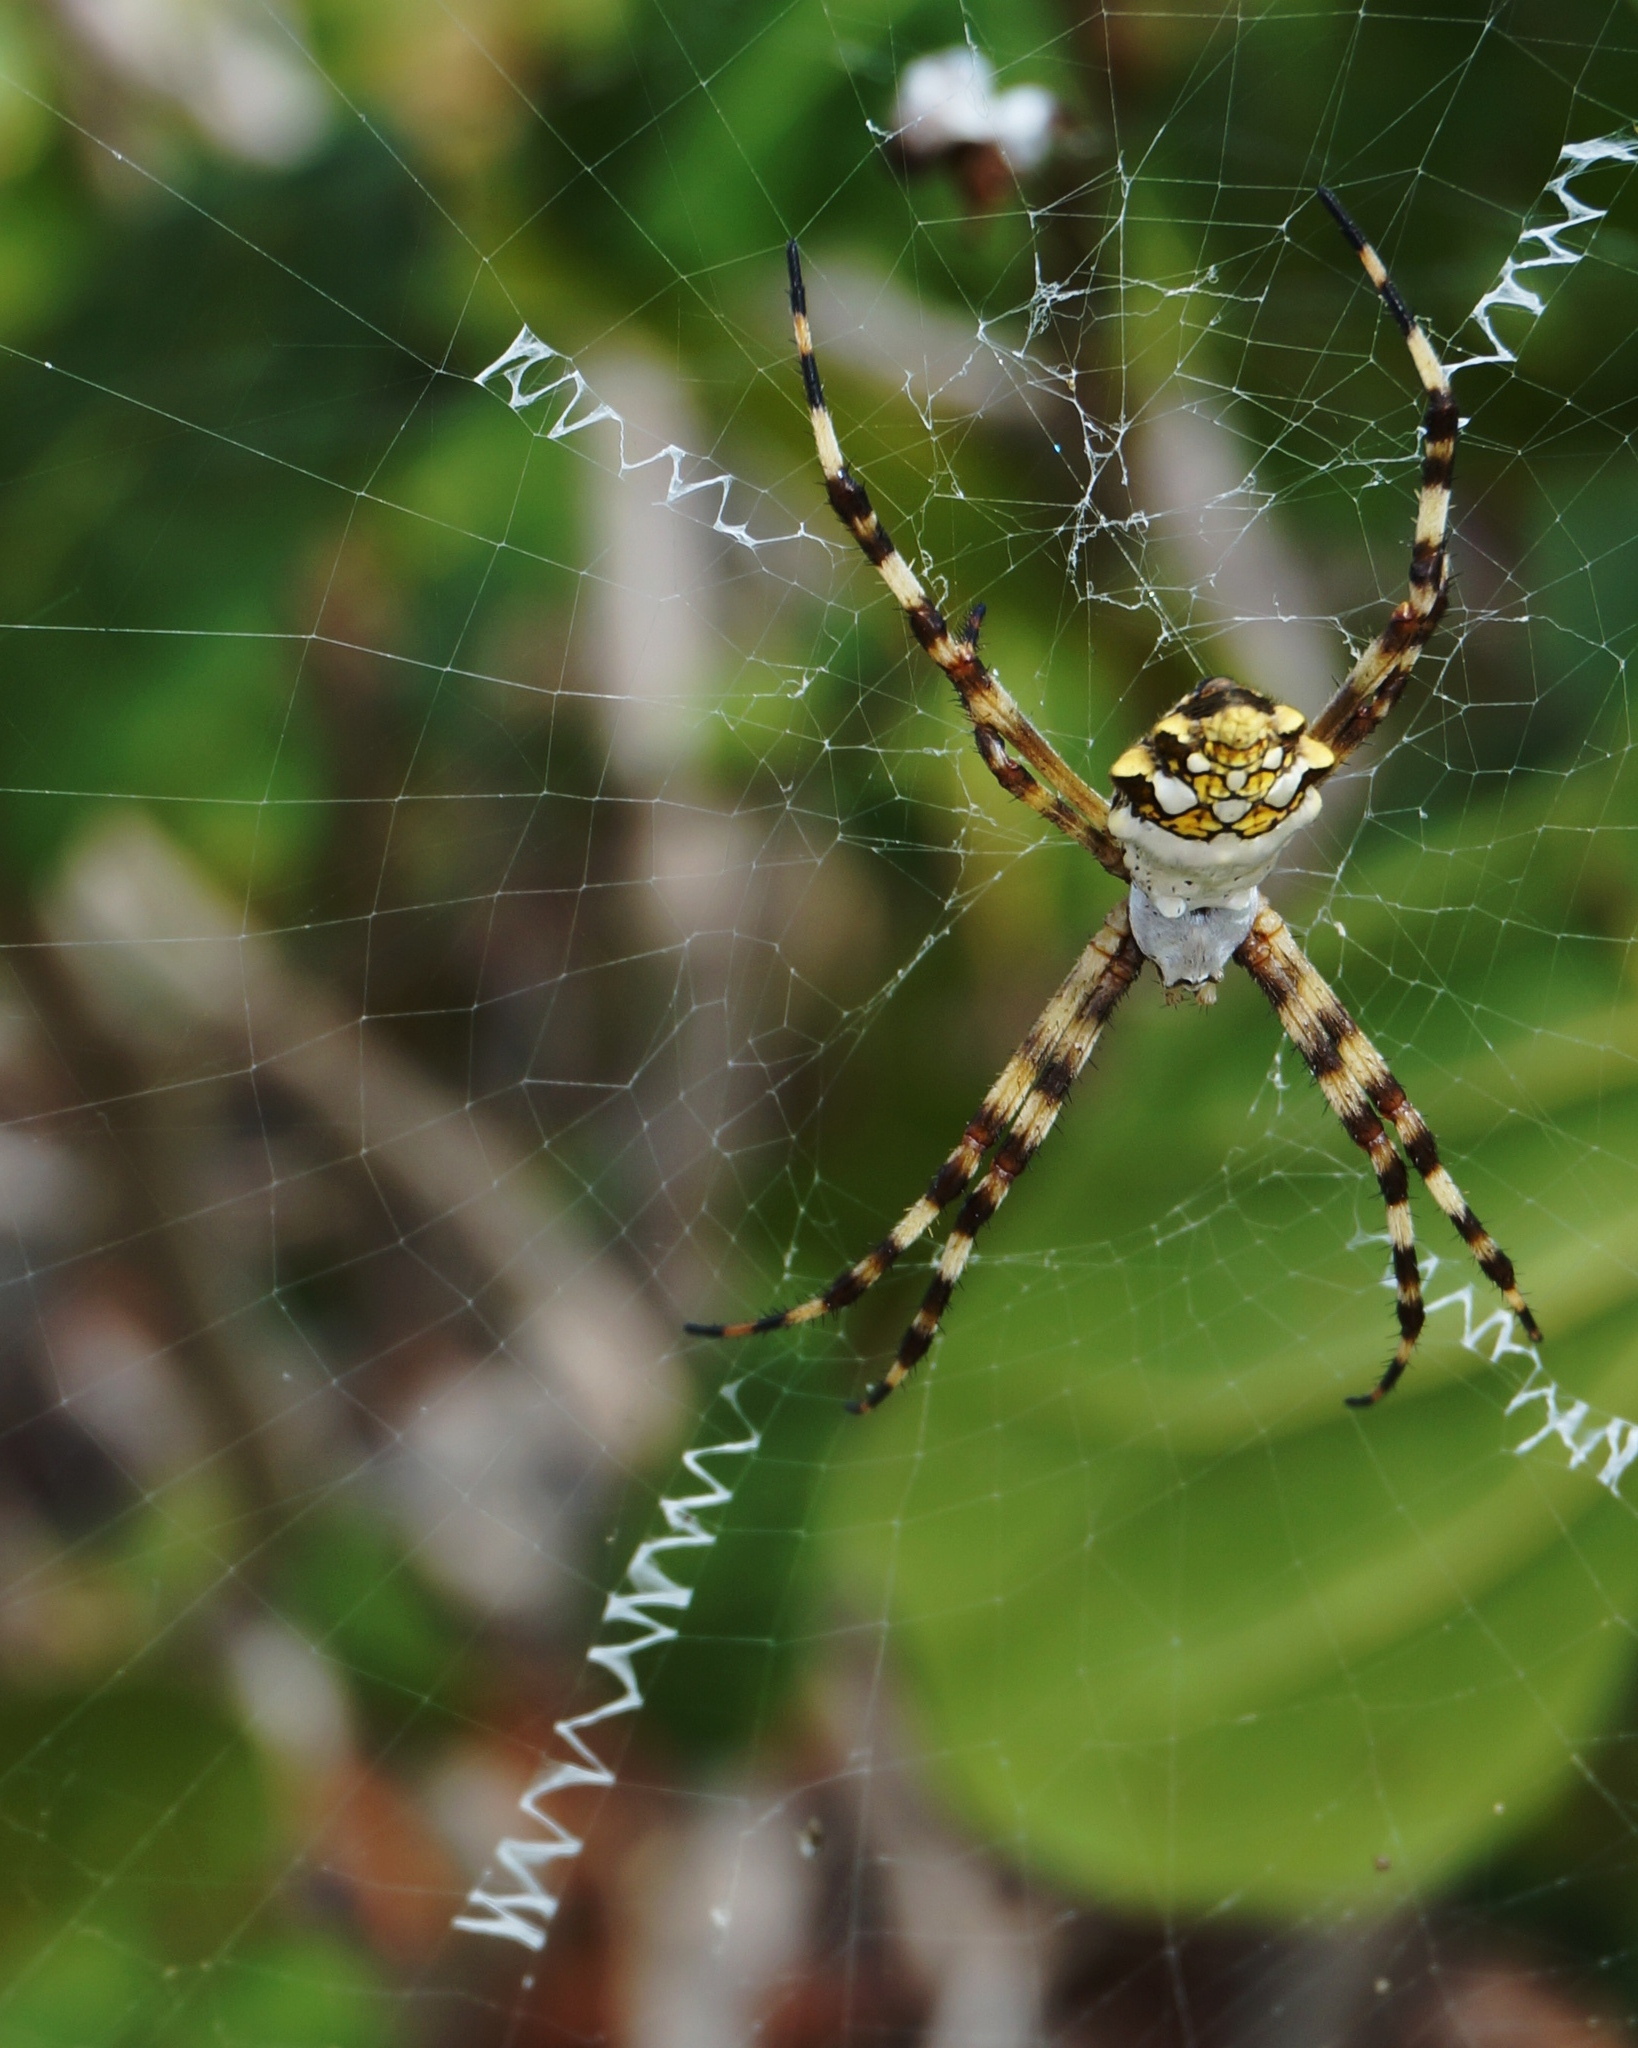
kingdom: Animalia
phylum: Arthropoda
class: Arachnida
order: Araneae
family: Araneidae
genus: Argiope
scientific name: Argiope argentata
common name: Orb weavers
